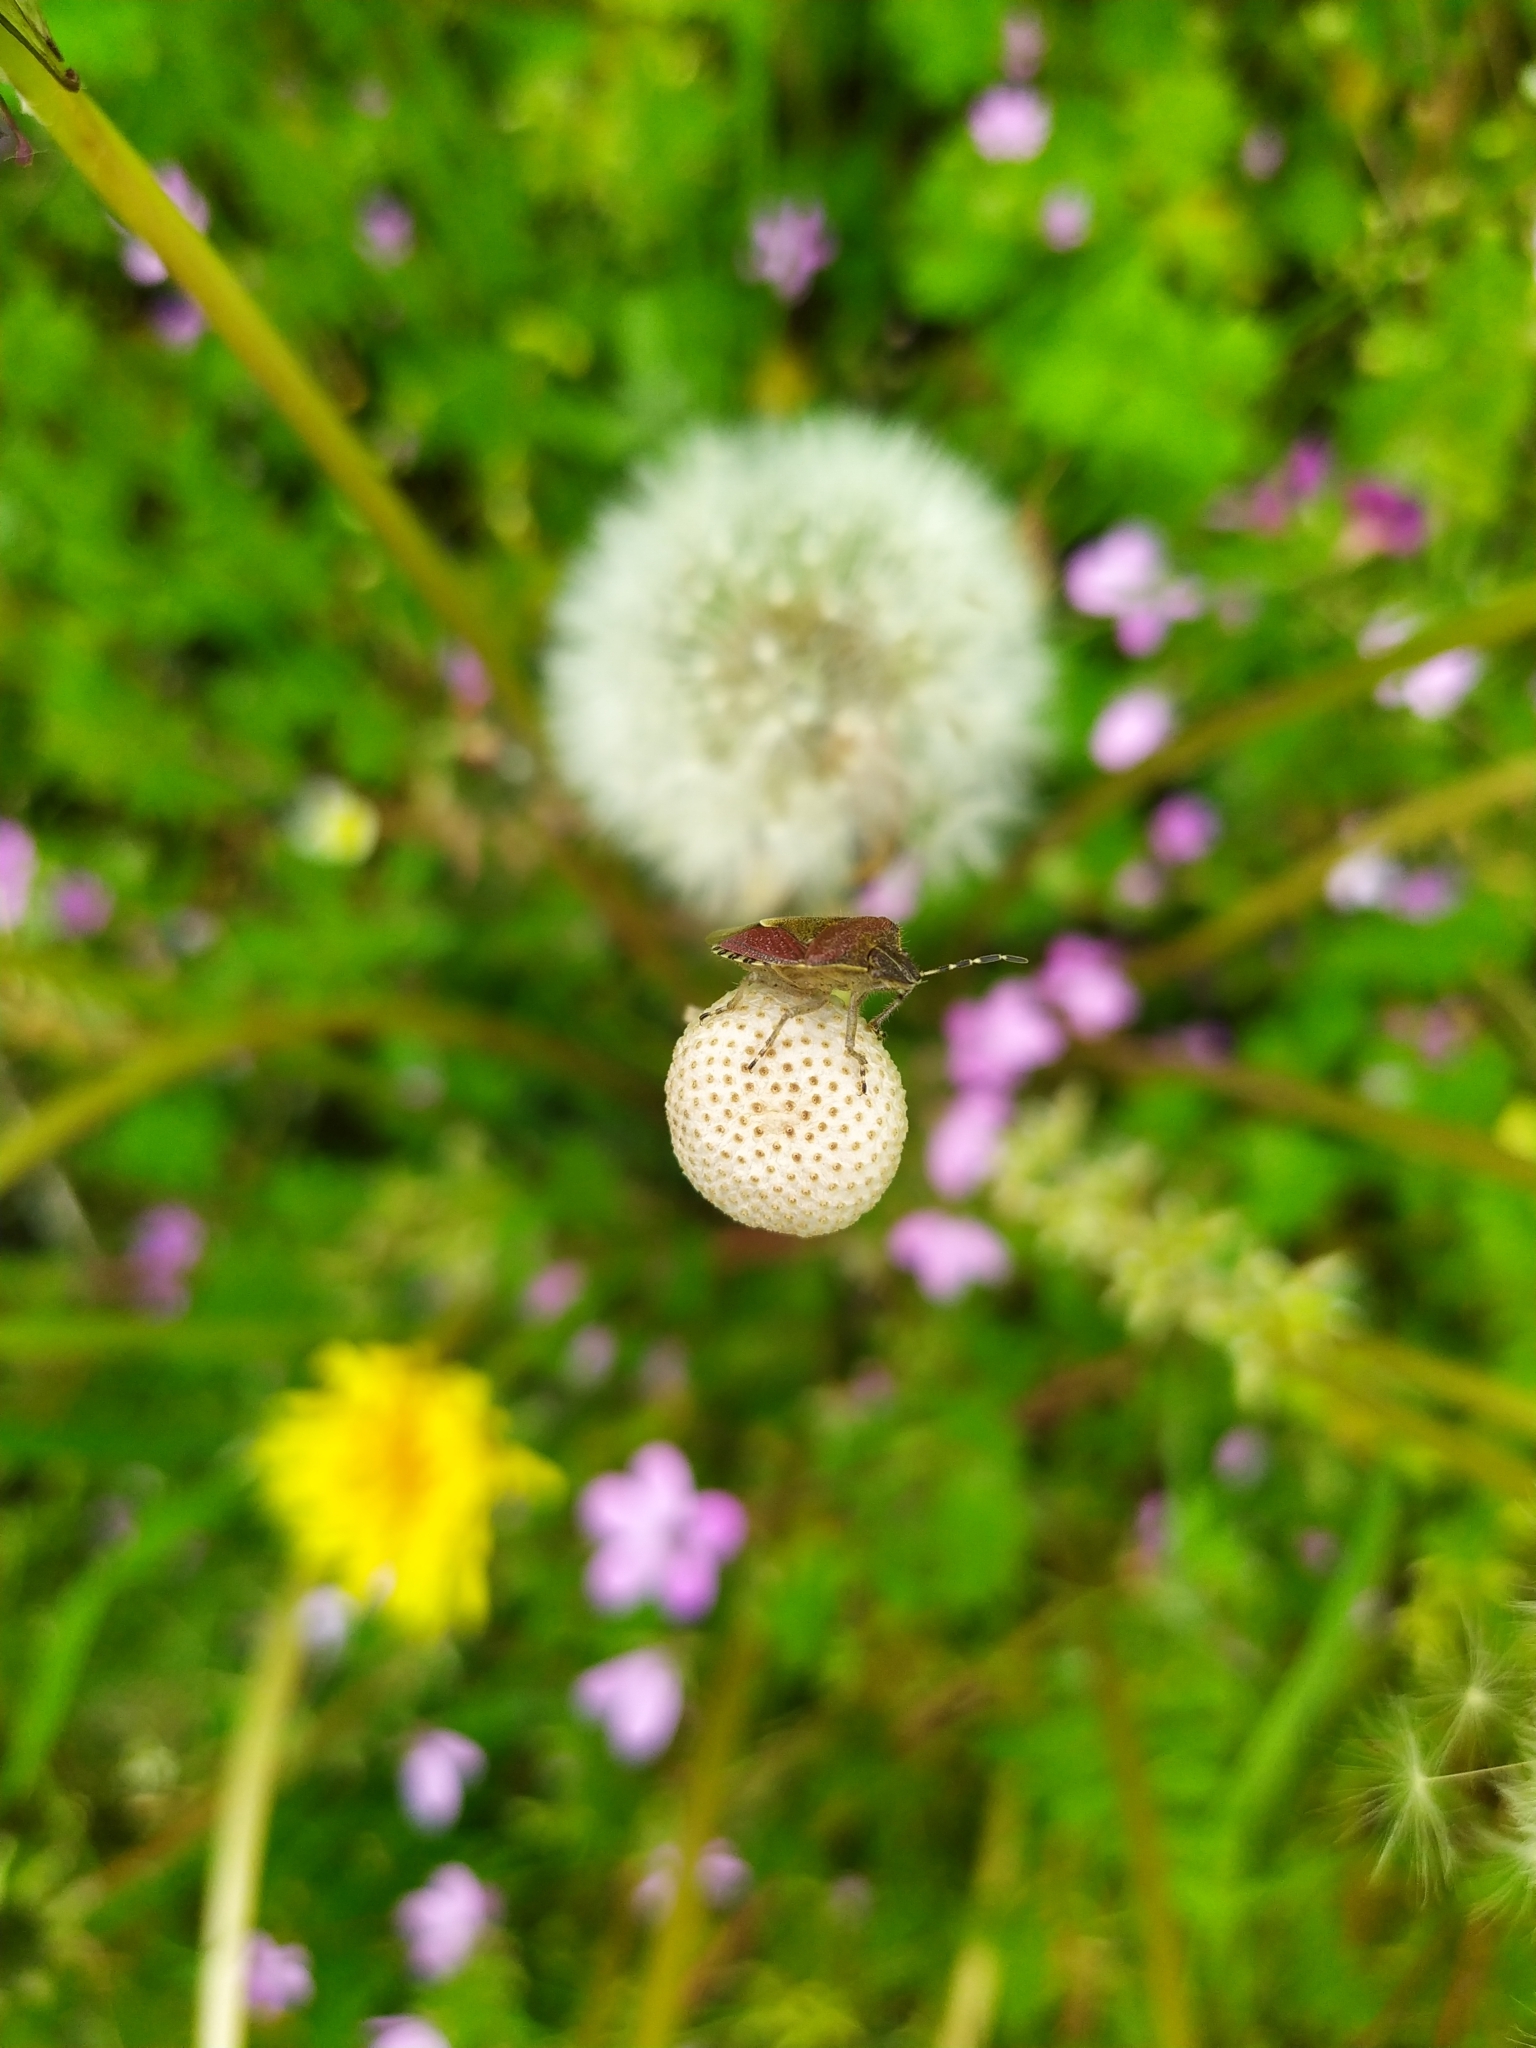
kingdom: Animalia
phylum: Arthropoda
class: Insecta
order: Hemiptera
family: Pentatomidae
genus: Dolycoris
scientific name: Dolycoris baccarum
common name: Sloe bug
